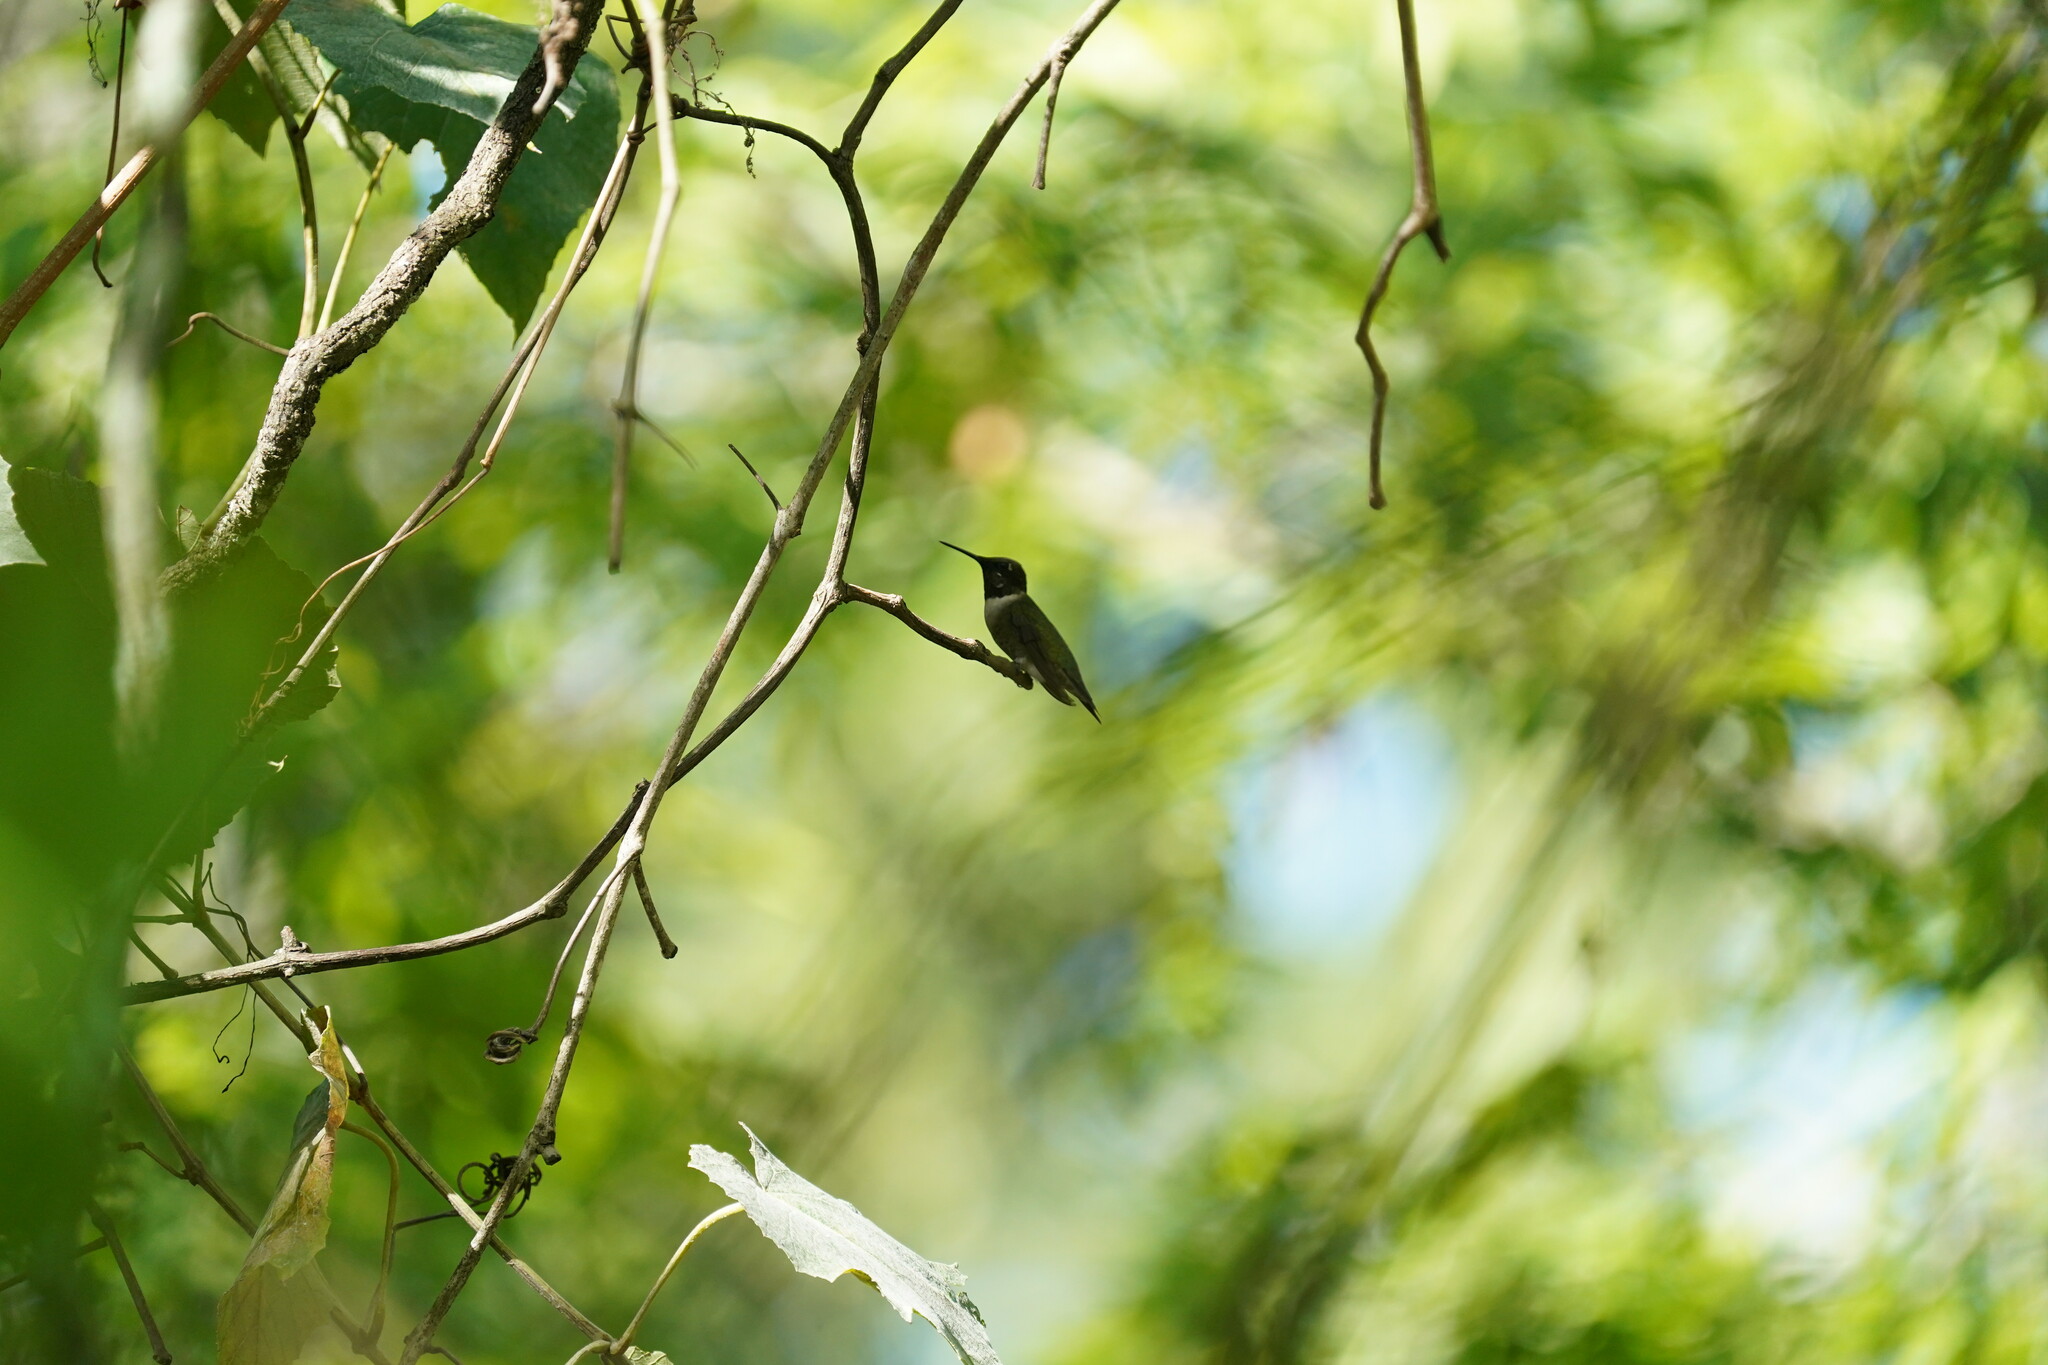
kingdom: Animalia
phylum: Chordata
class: Aves
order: Apodiformes
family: Trochilidae
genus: Archilochus
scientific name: Archilochus colubris
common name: Ruby-throated hummingbird
